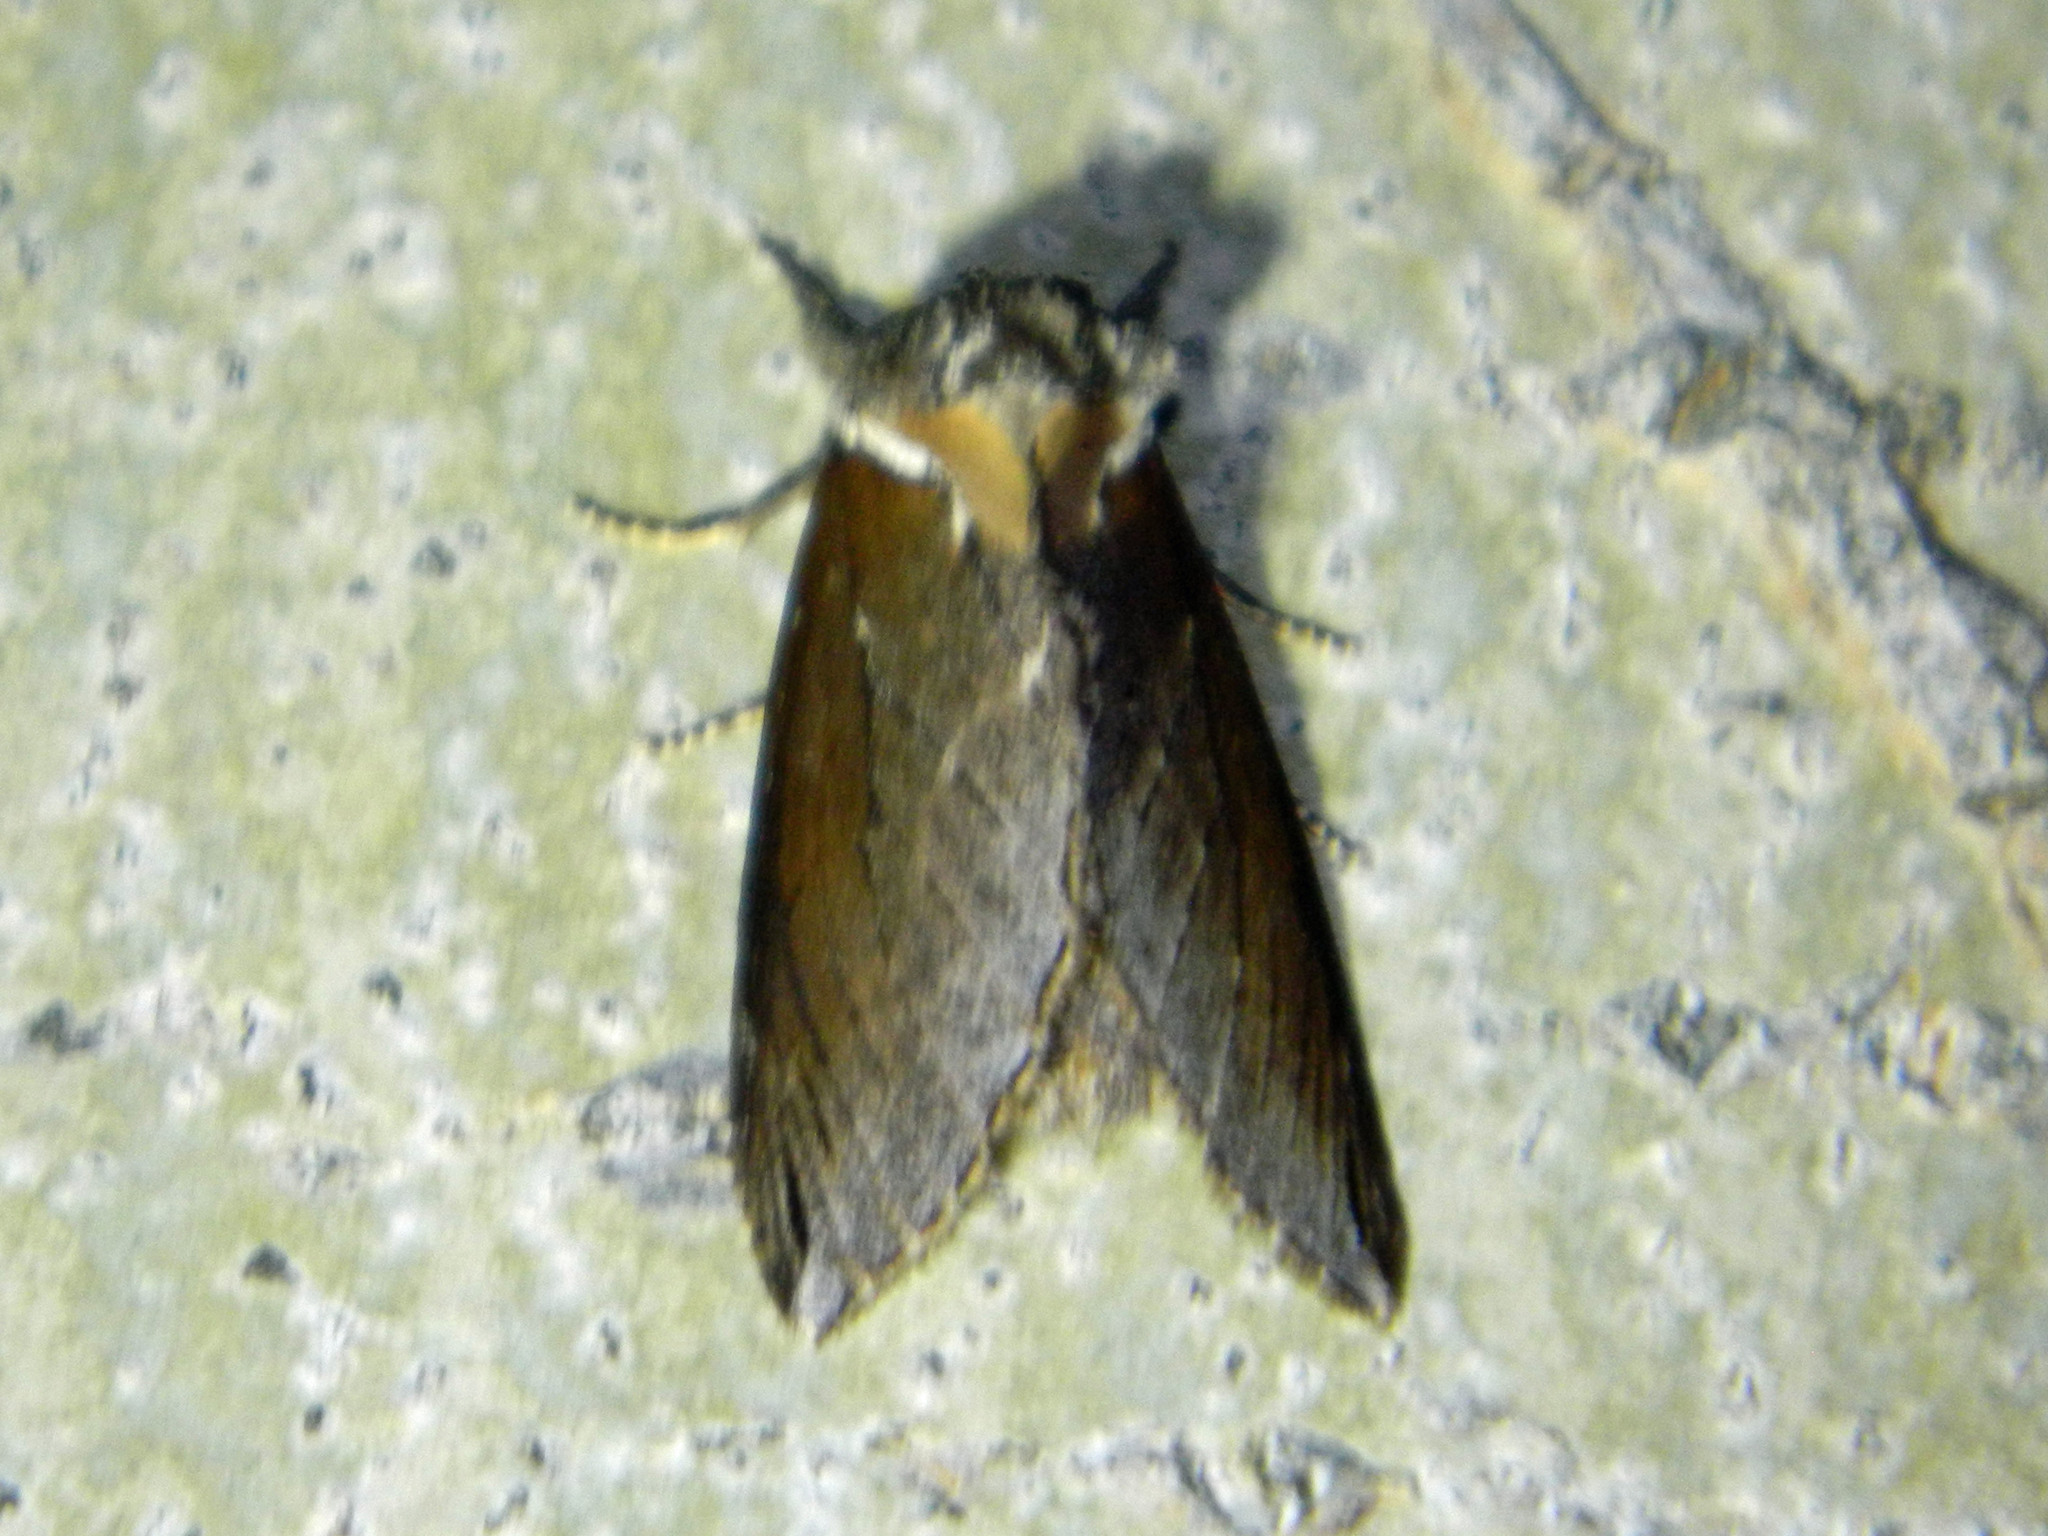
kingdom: Animalia
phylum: Arthropoda
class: Insecta
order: Lepidoptera
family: Notodontidae
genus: Pheosidea
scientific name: Pheosidea elegans
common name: Elegant prominent
